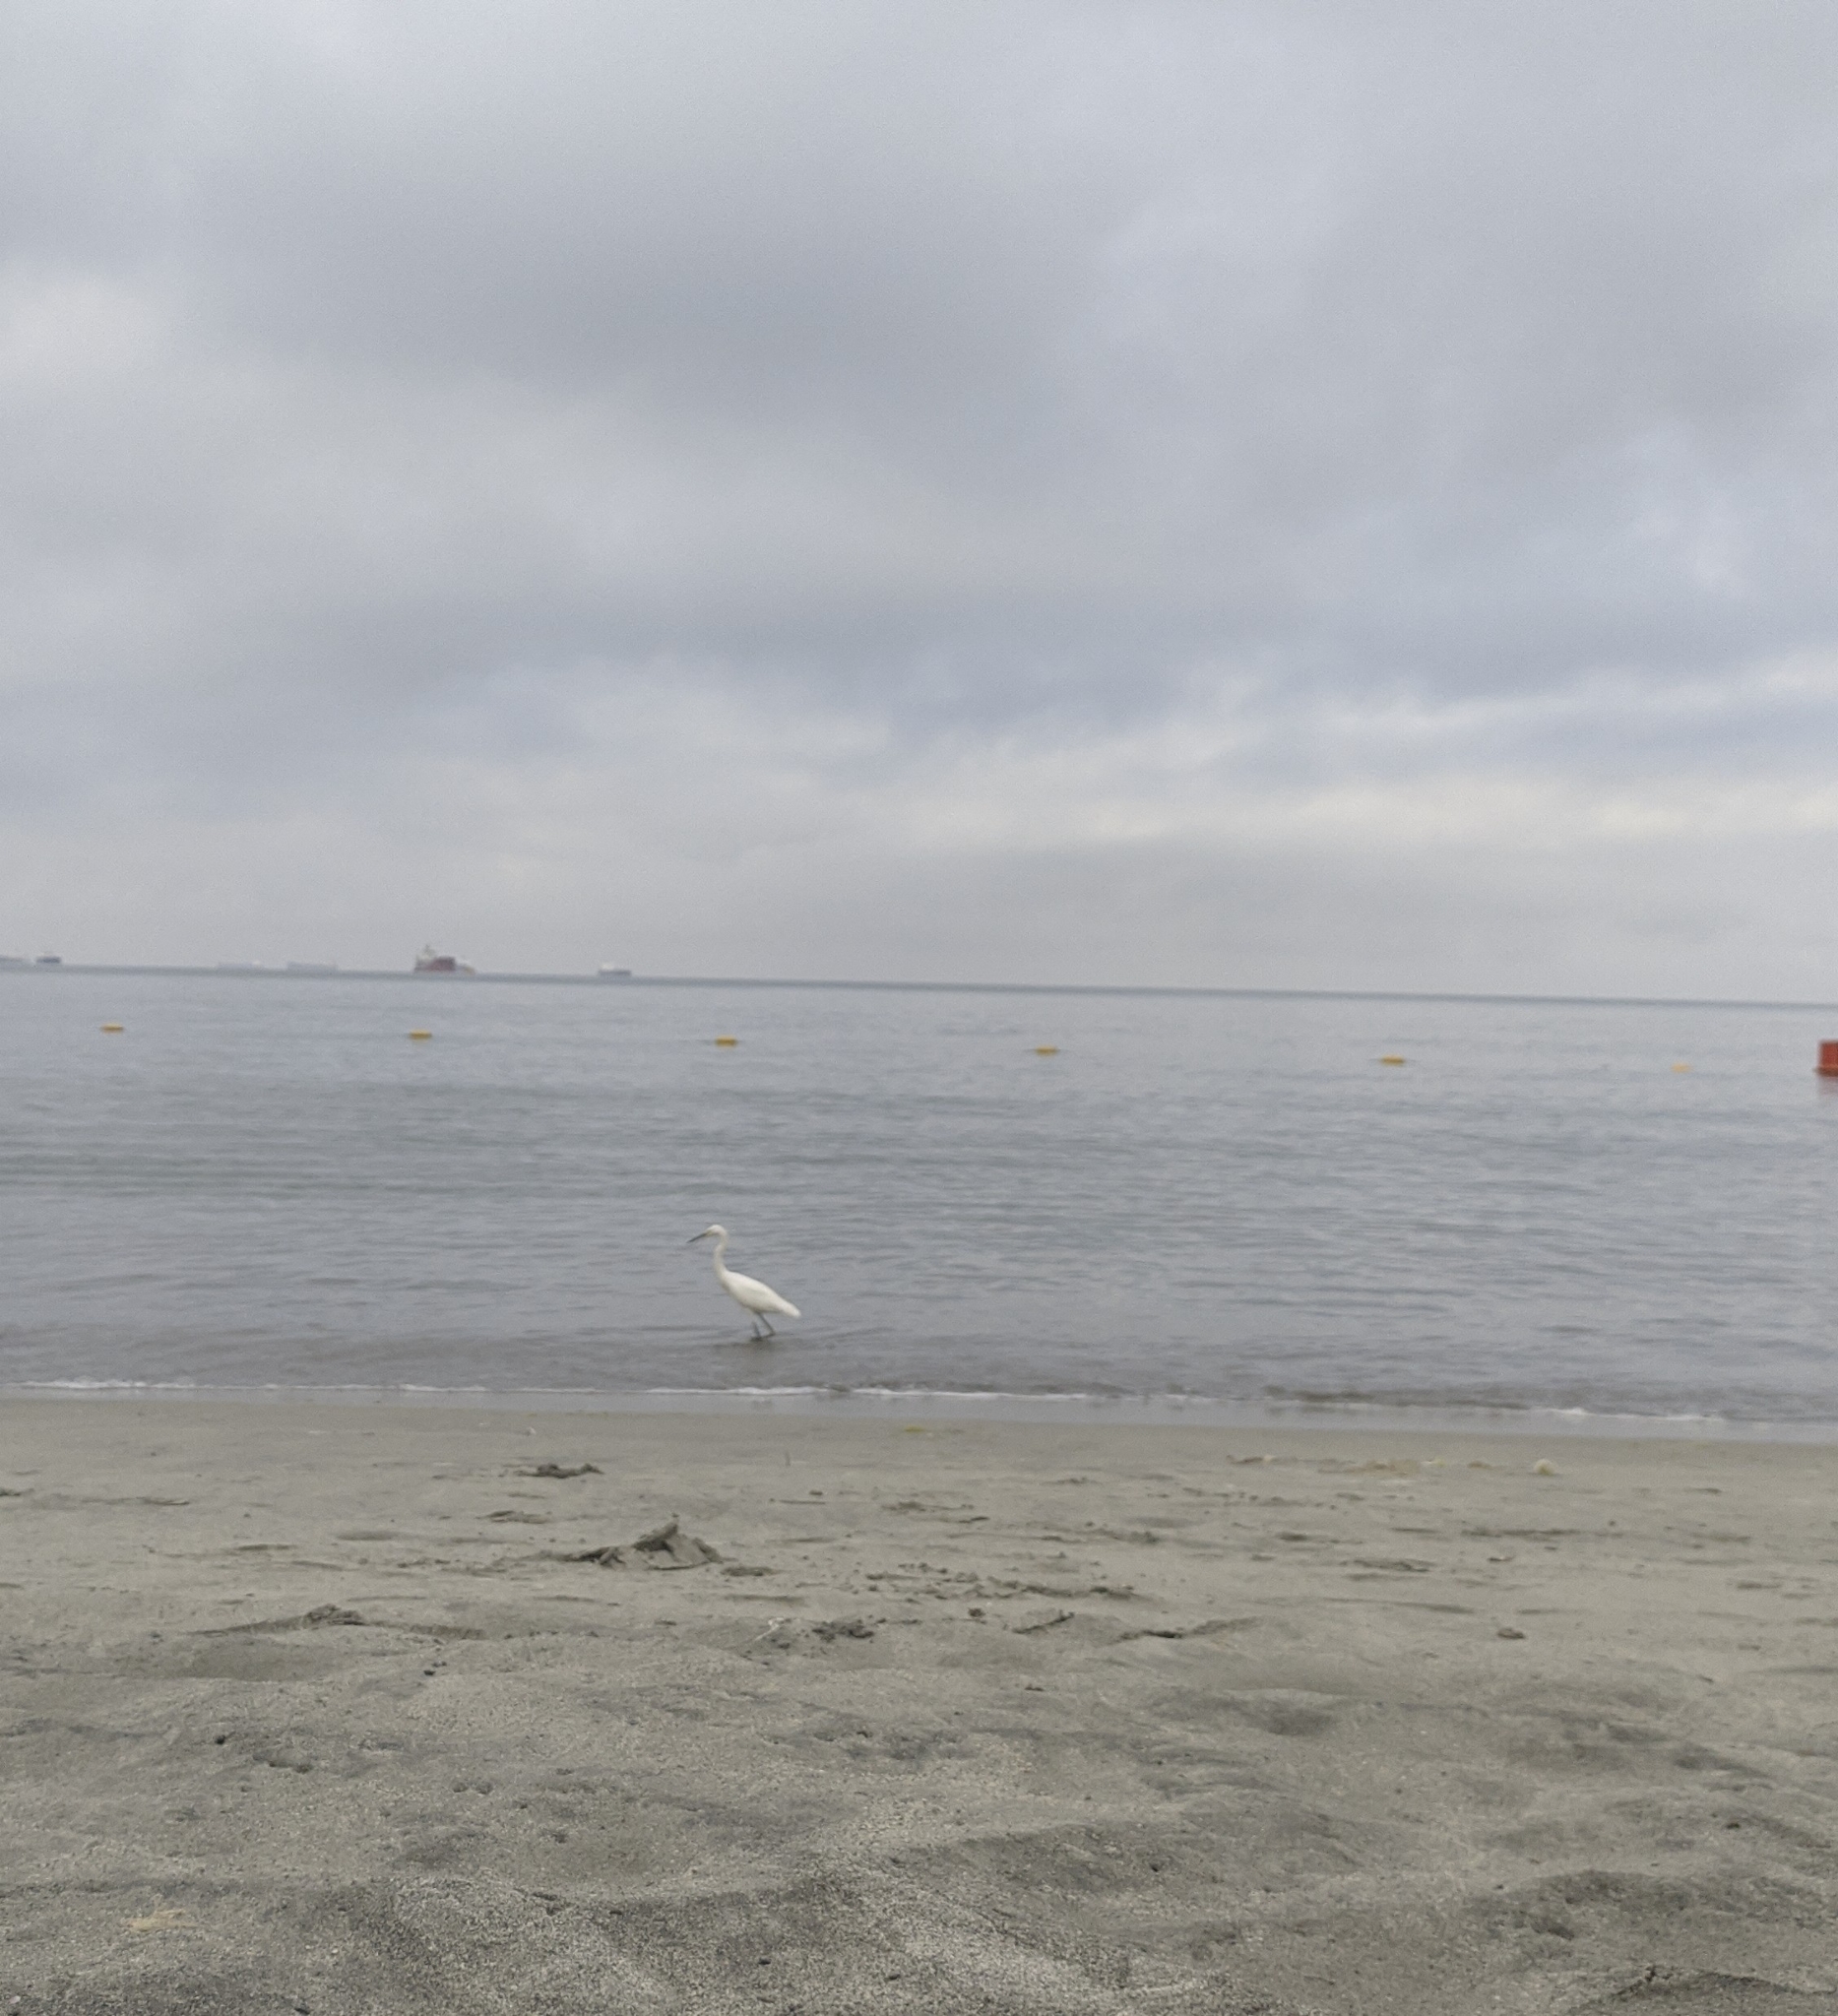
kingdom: Animalia
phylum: Chordata
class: Aves
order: Pelecaniformes
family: Ardeidae
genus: Egretta
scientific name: Egretta thula
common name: Snowy egret
